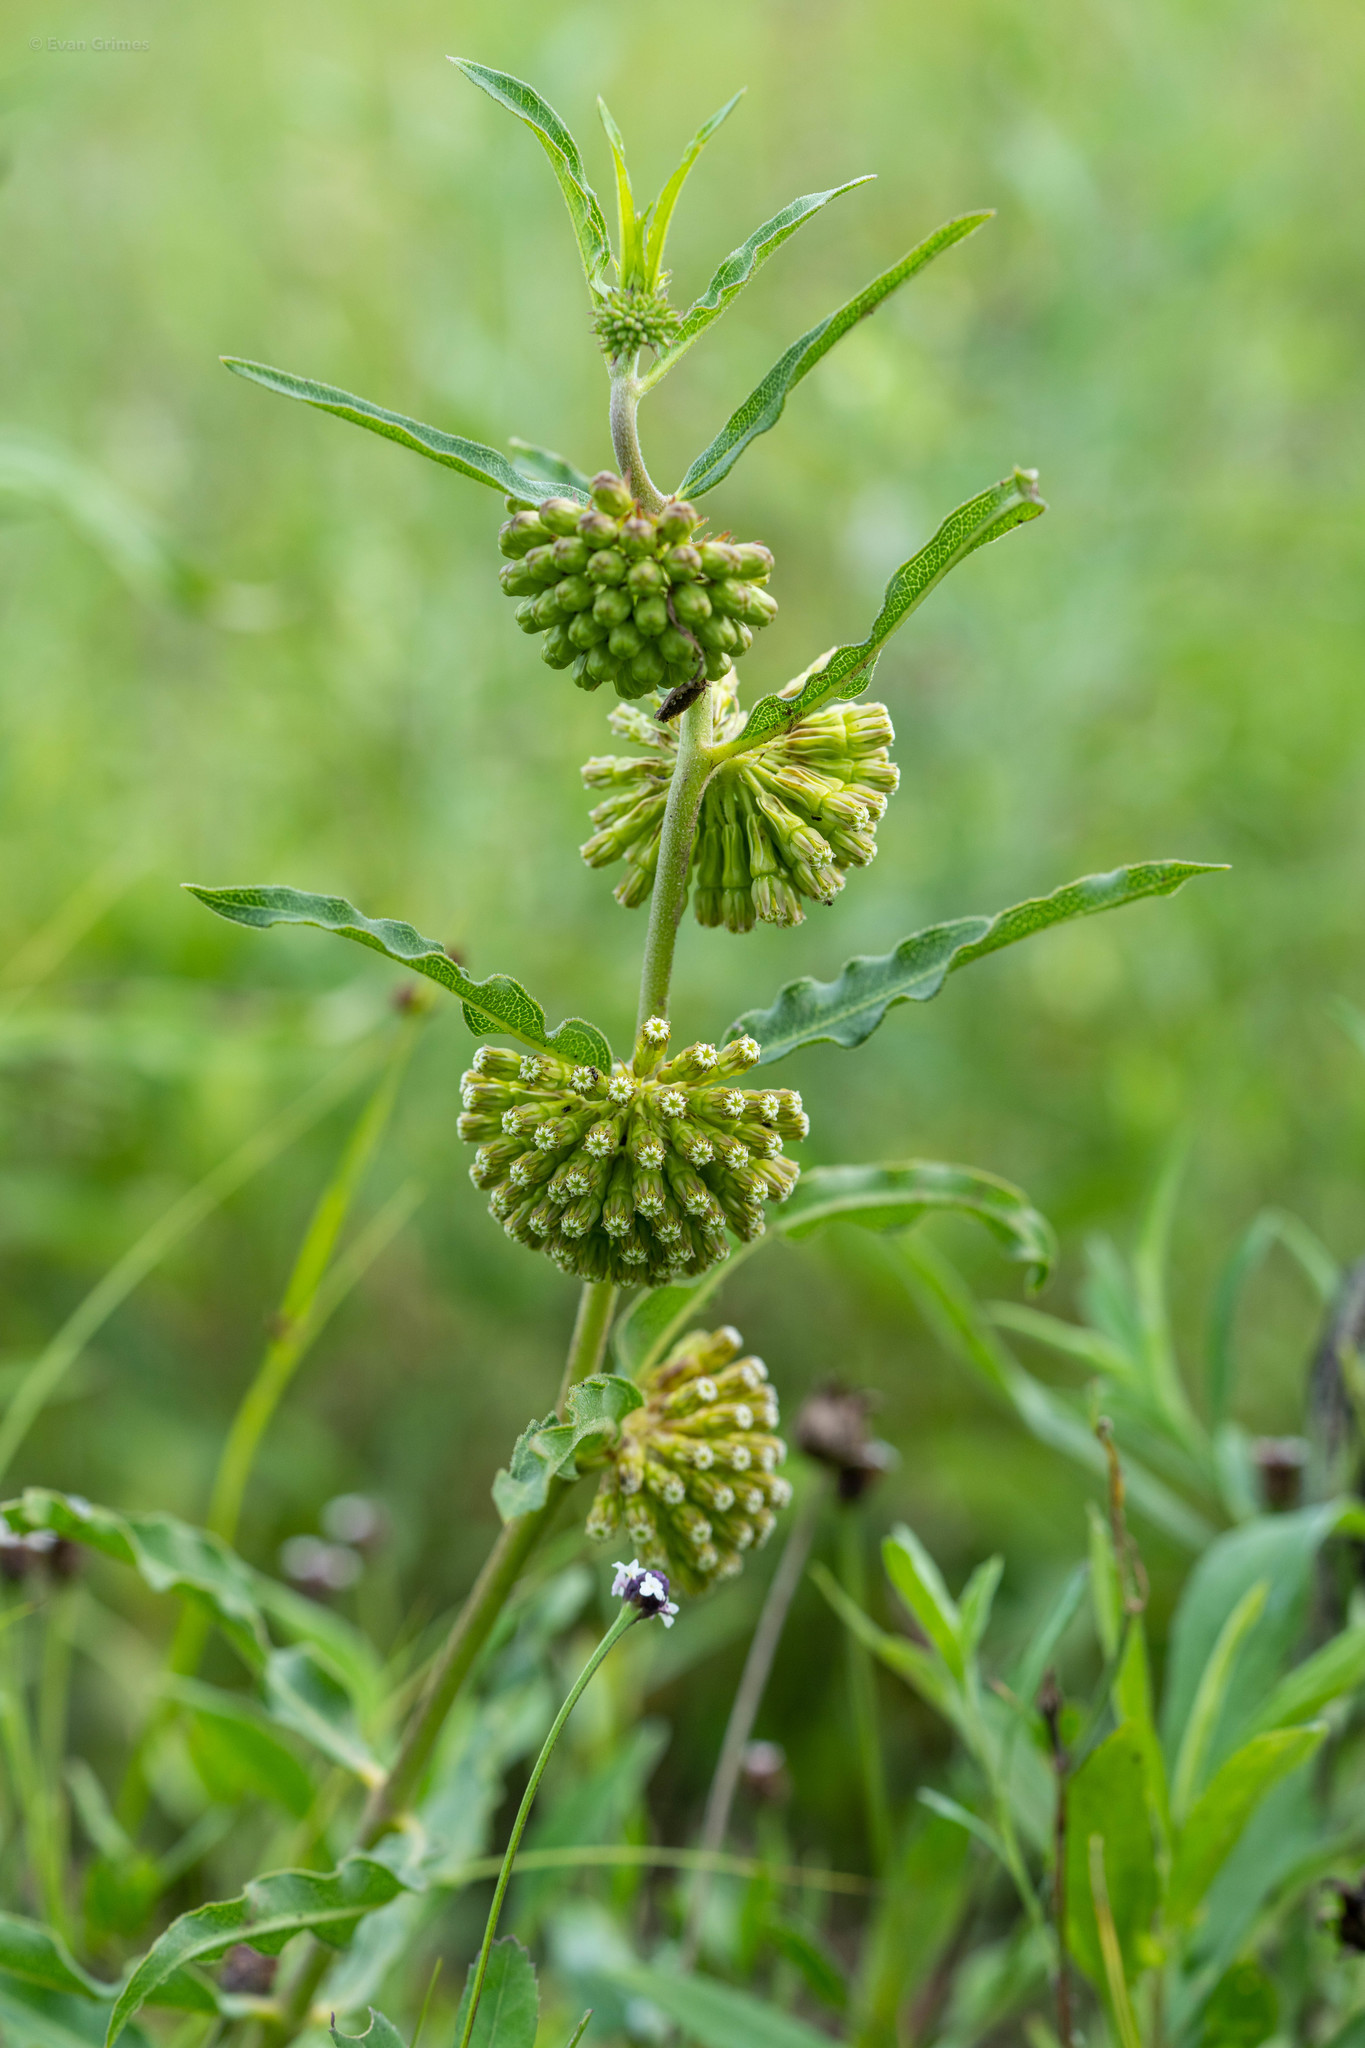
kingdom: Plantae
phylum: Tracheophyta
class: Magnoliopsida
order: Gentianales
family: Apocynaceae
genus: Asclepias
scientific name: Asclepias viridiflora
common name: Green comet milkweed
